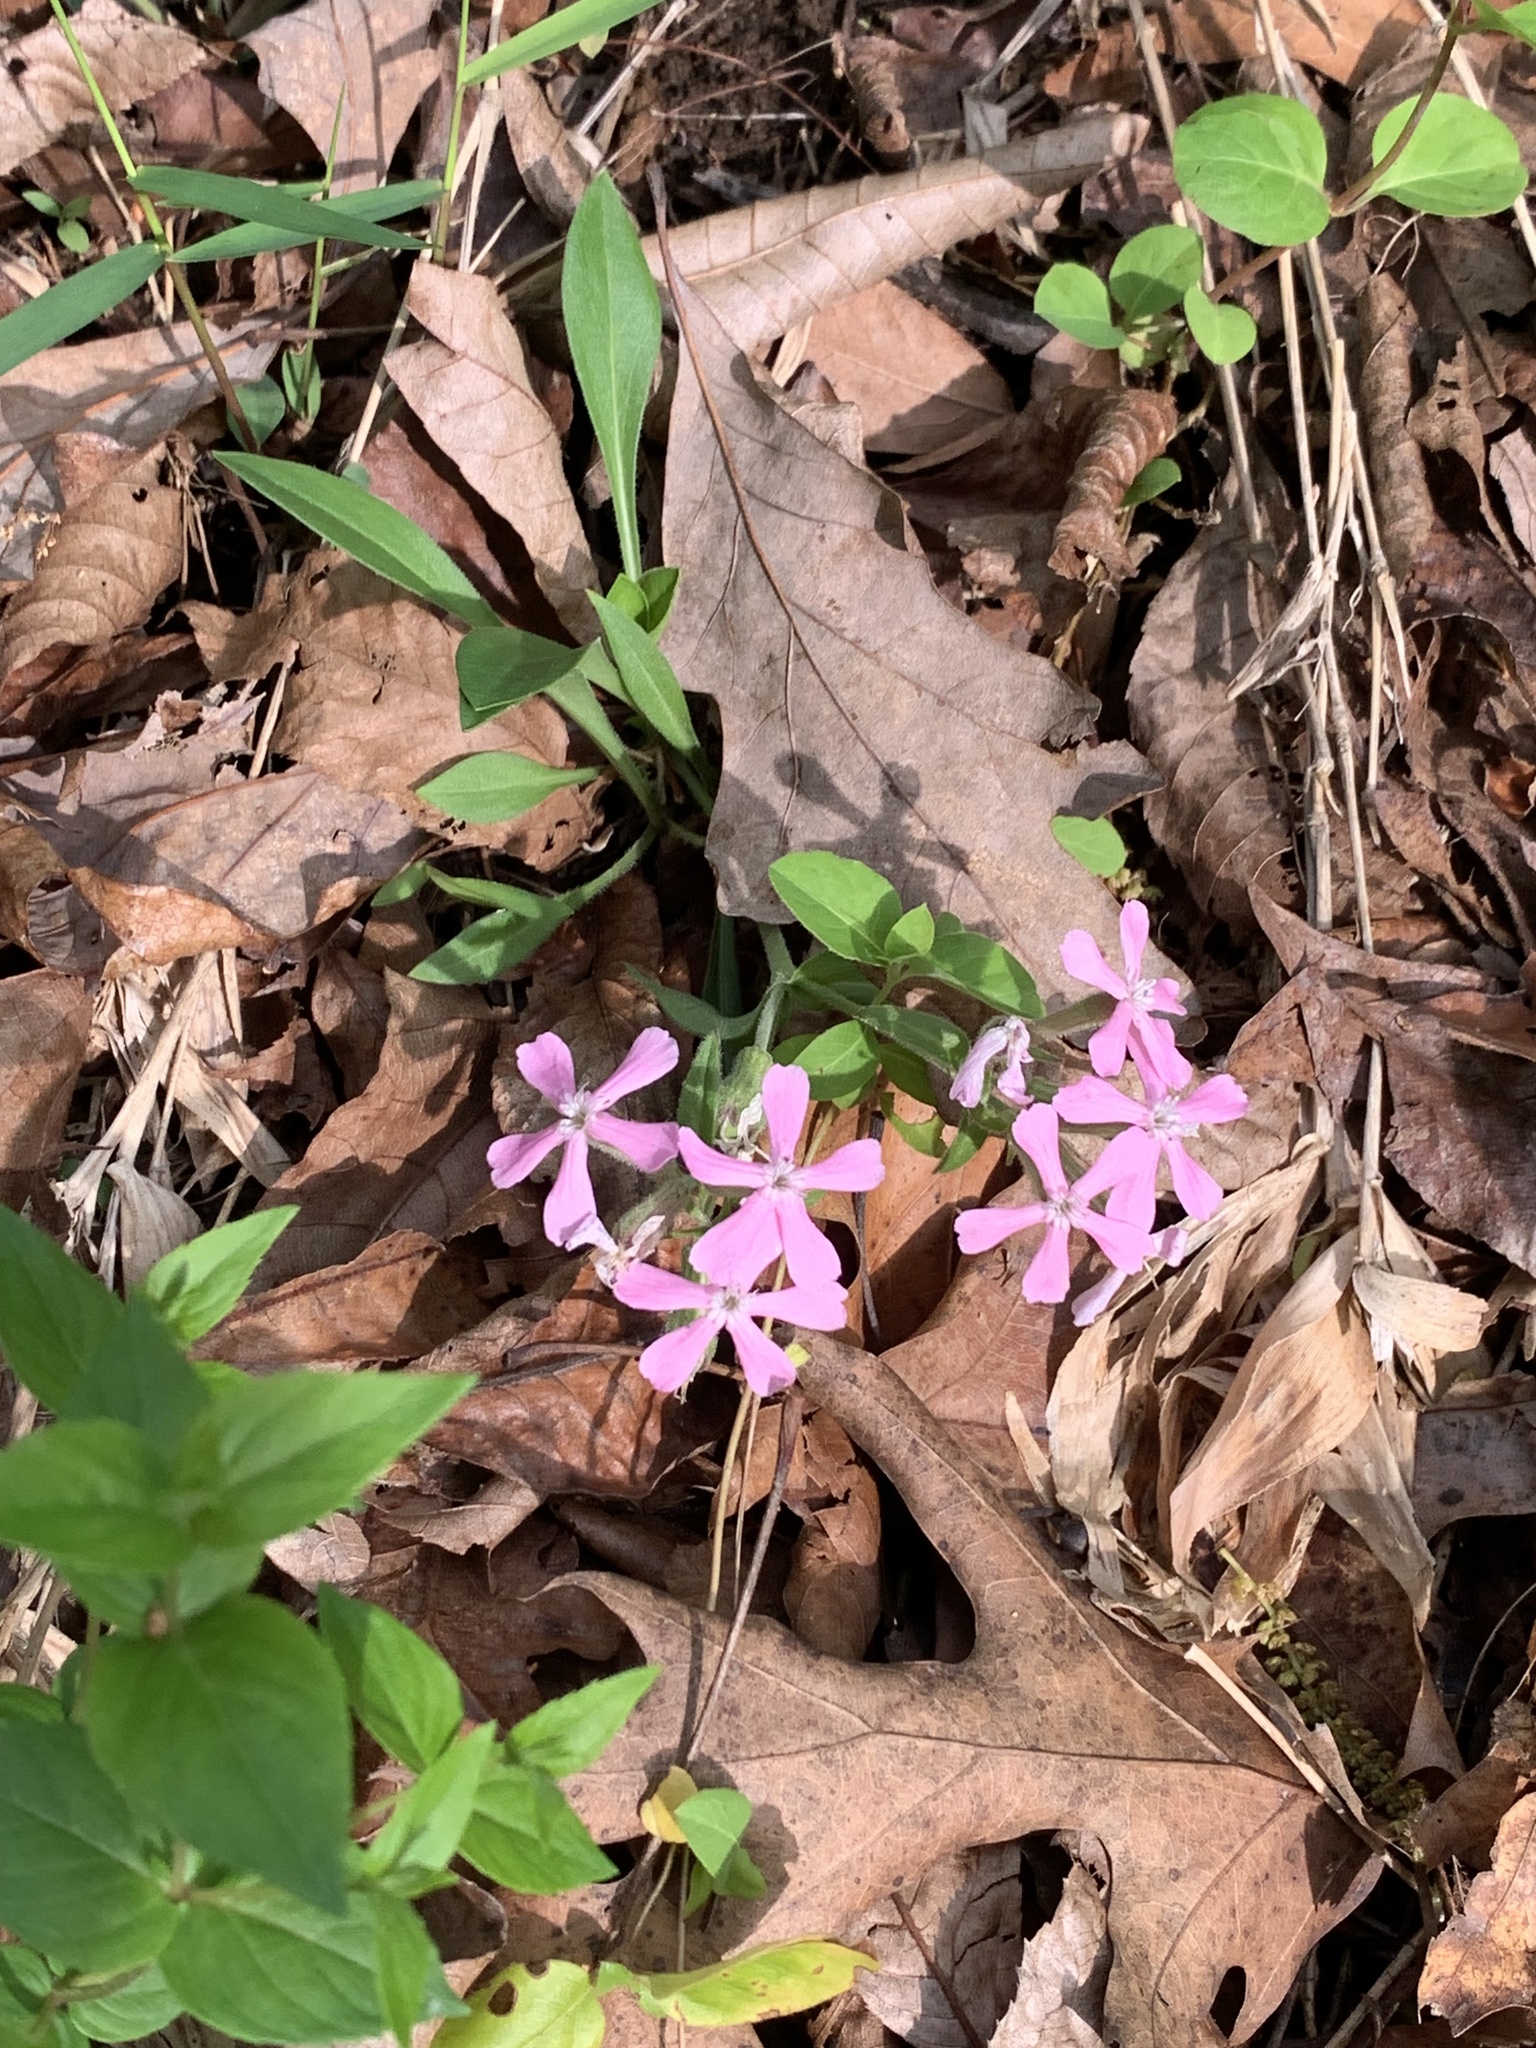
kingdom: Plantae
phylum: Tracheophyta
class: Magnoliopsida
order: Caryophyllales
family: Caryophyllaceae
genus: Silene
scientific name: Silene caroliniana
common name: Sticky catchfly
